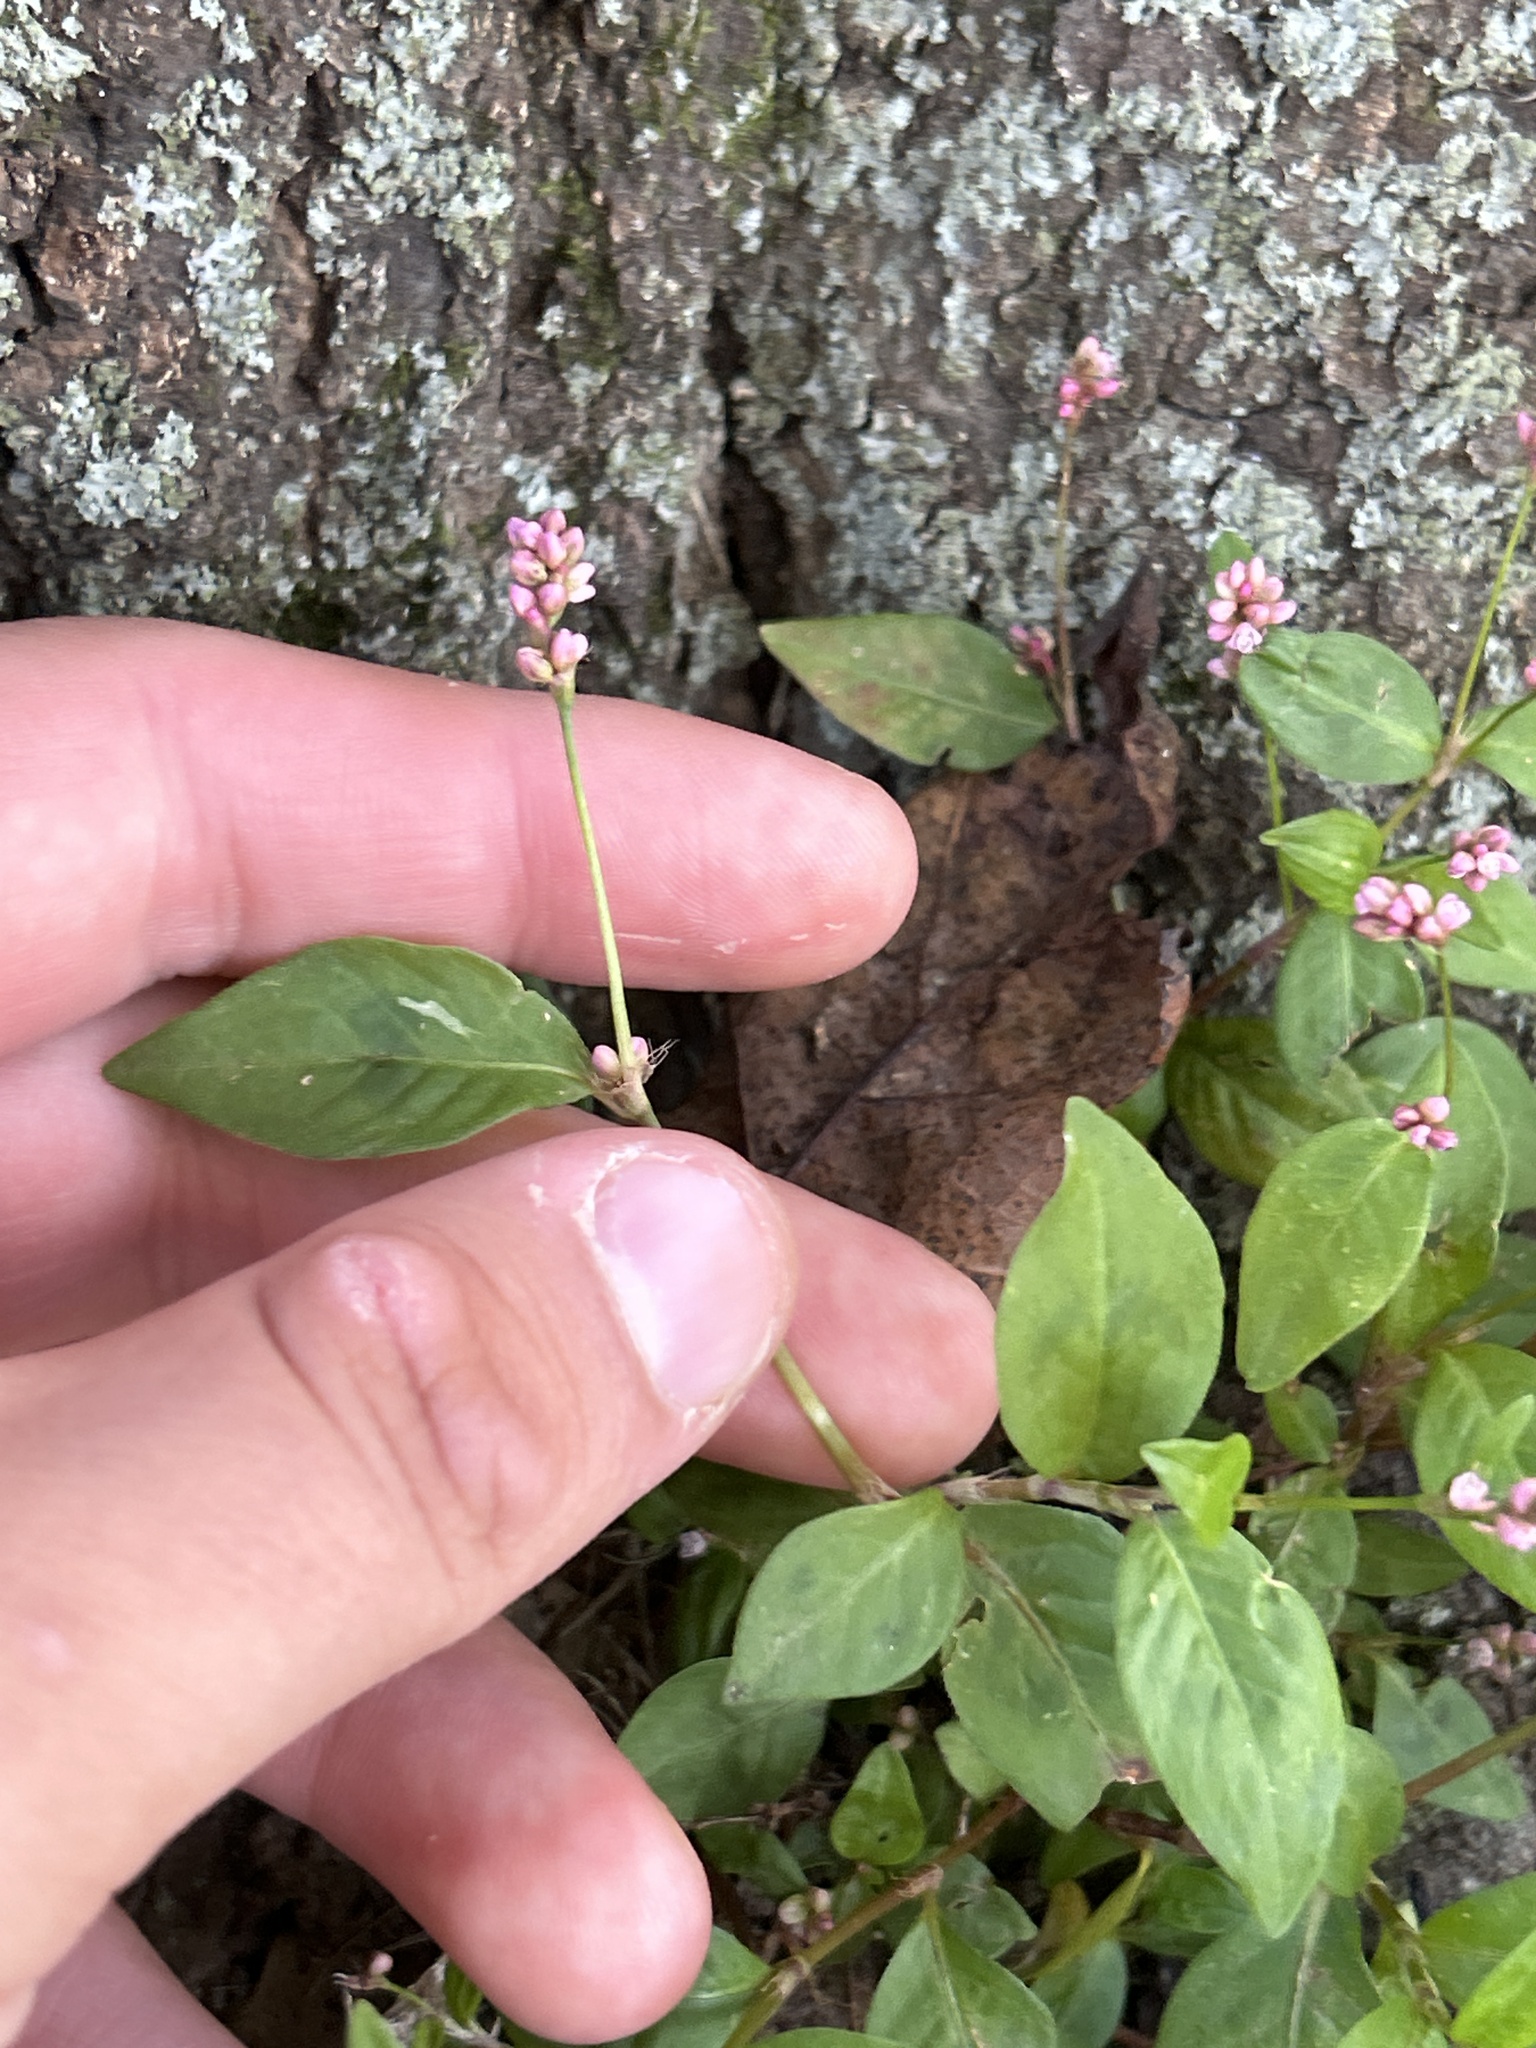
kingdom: Plantae
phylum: Tracheophyta
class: Magnoliopsida
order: Caryophyllales
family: Polygonaceae
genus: Persicaria
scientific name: Persicaria longiseta
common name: Bristly lady's-thumb
